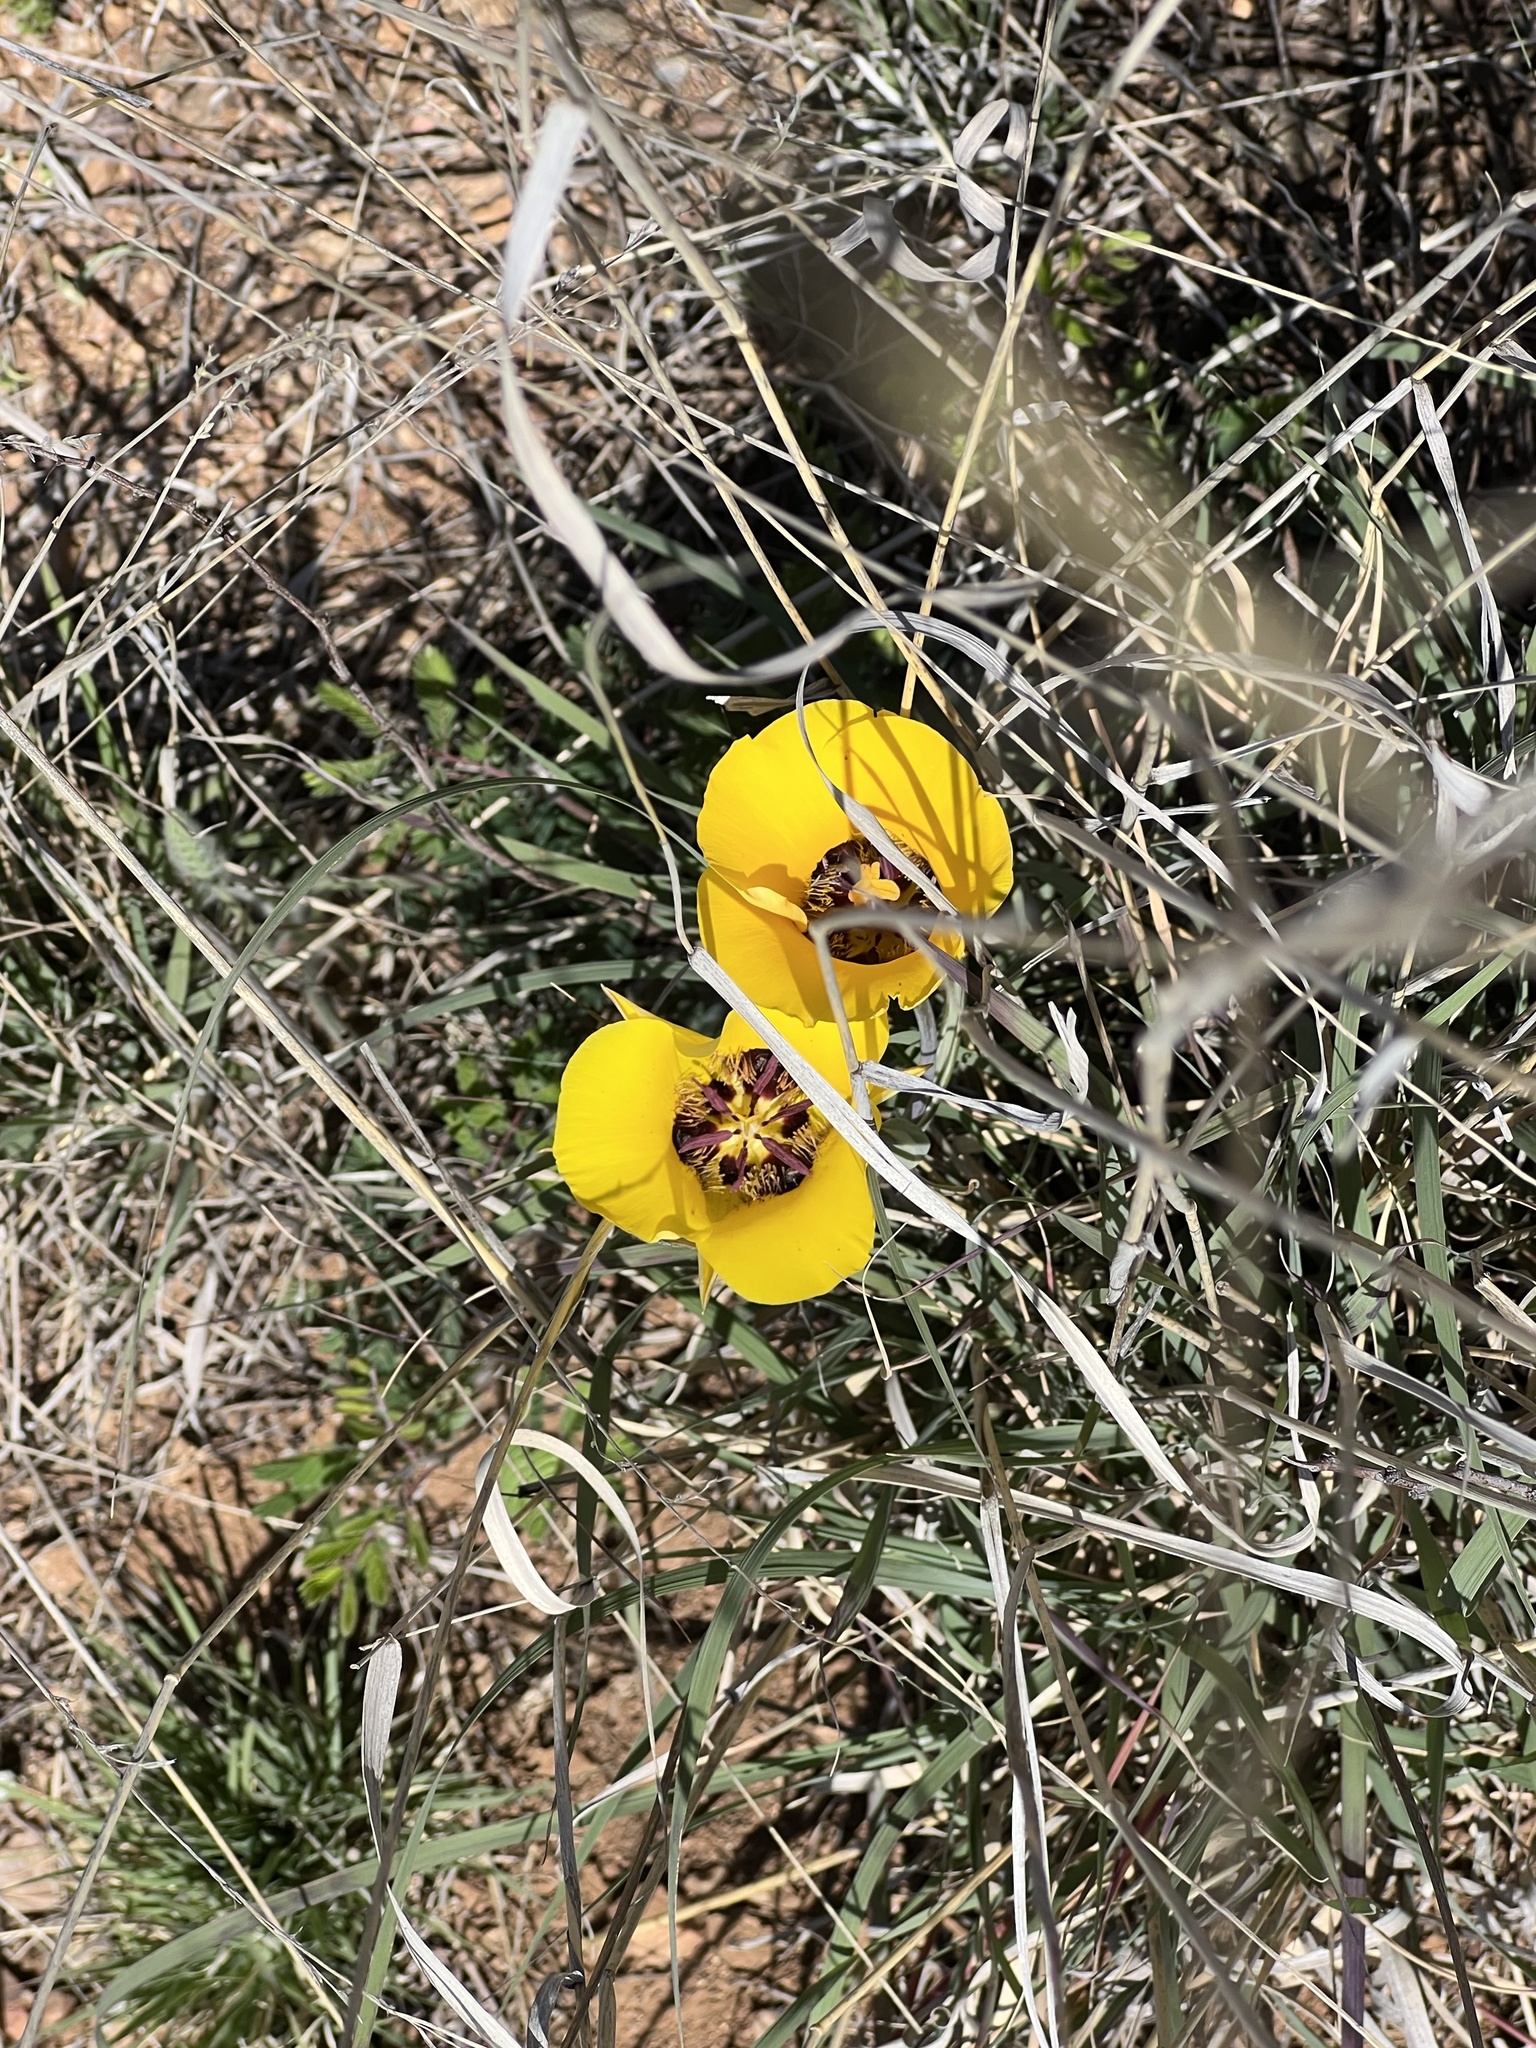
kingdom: Plantae
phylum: Tracheophyta
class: Liliopsida
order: Liliales
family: Liliaceae
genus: Calochortus
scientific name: Calochortus kennedyi
